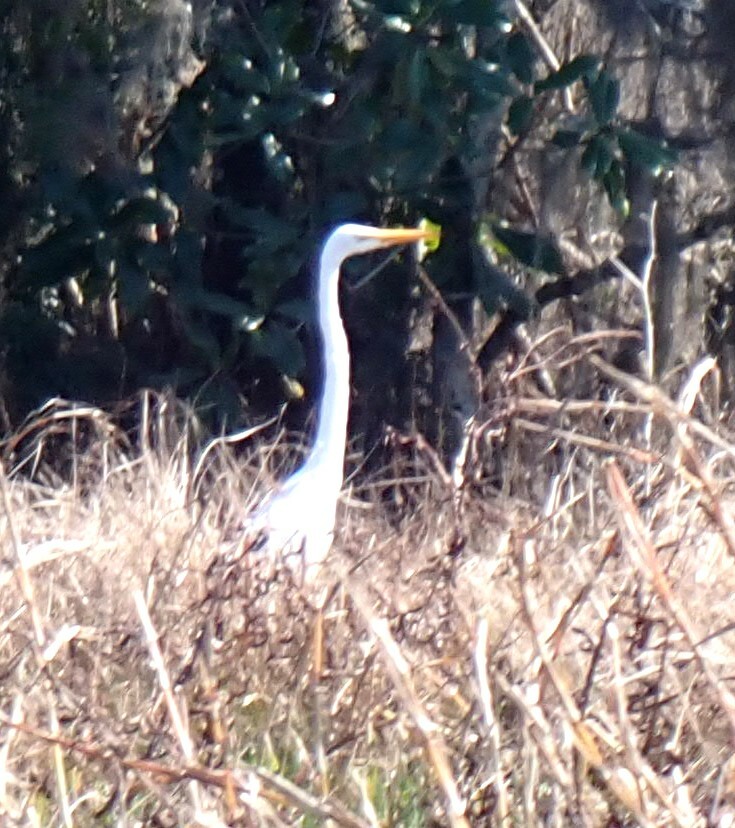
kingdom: Animalia
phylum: Chordata
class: Aves
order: Pelecaniformes
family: Ardeidae
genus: Ardea
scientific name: Ardea alba
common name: Great egret
